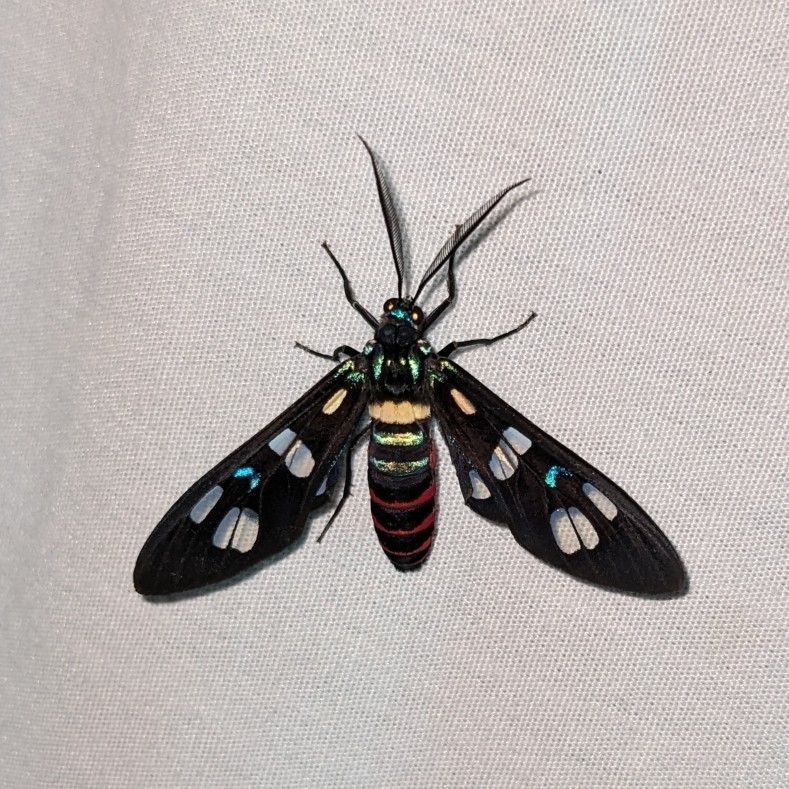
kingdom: Animalia
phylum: Arthropoda
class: Insecta
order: Lepidoptera
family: Erebidae
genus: Euchromia
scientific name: Euchromia irius
